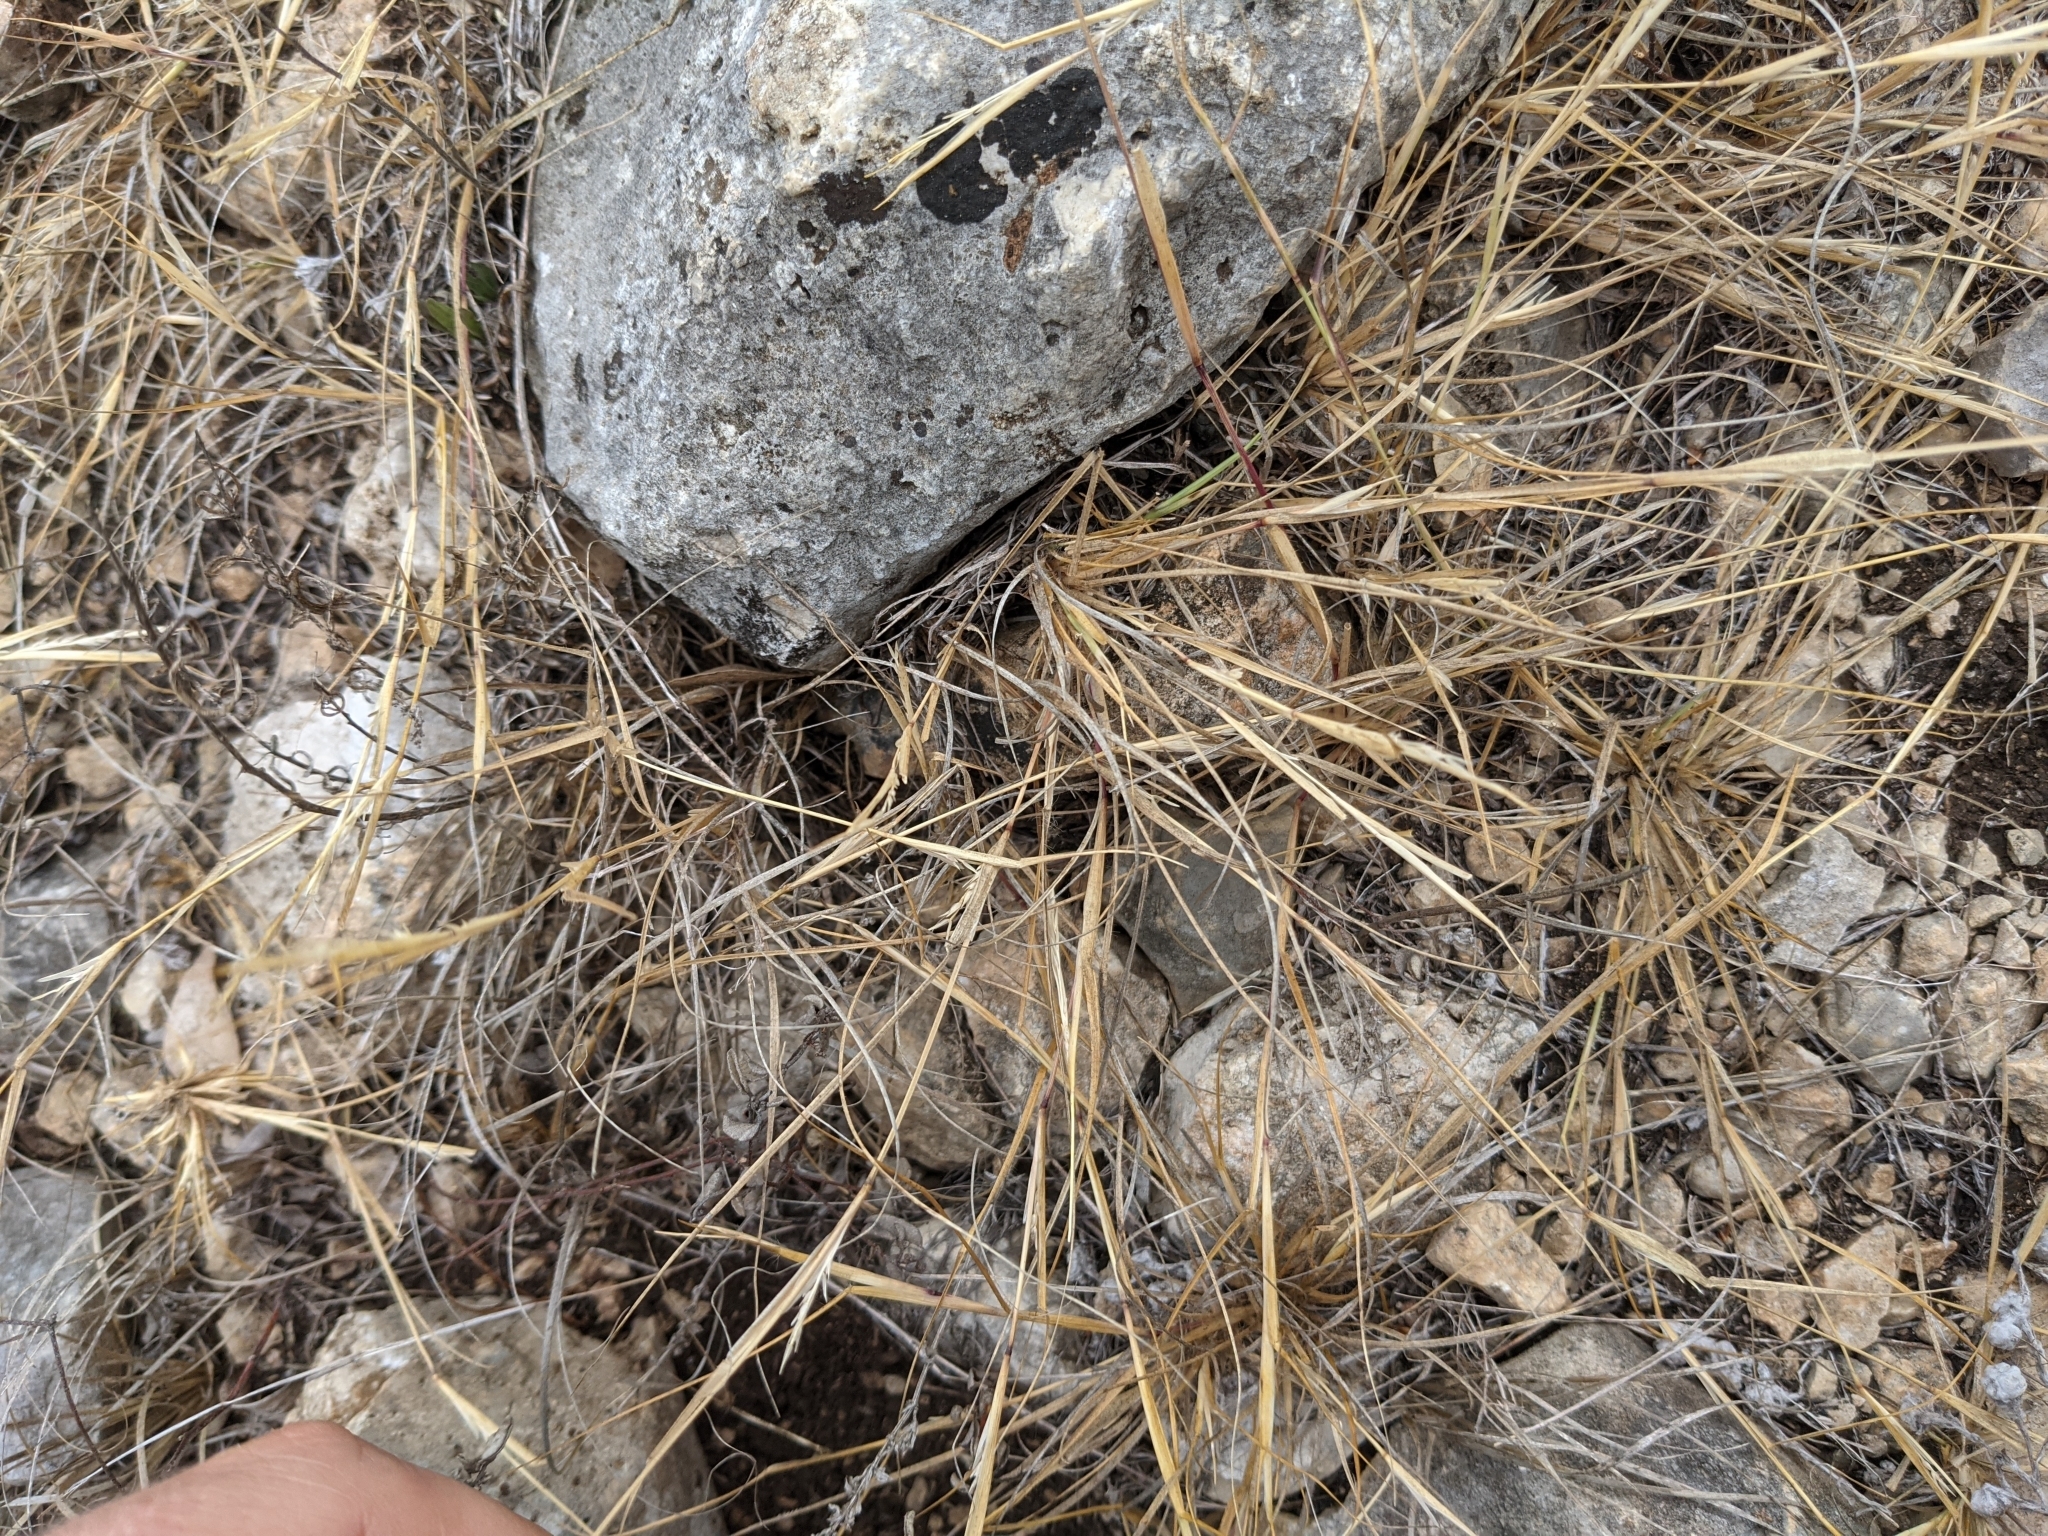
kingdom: Plantae
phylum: Tracheophyta
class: Liliopsida
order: Poales
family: Poaceae
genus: Sporobolus
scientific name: Sporobolus vaginiflorus
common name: Poverty dropseed
